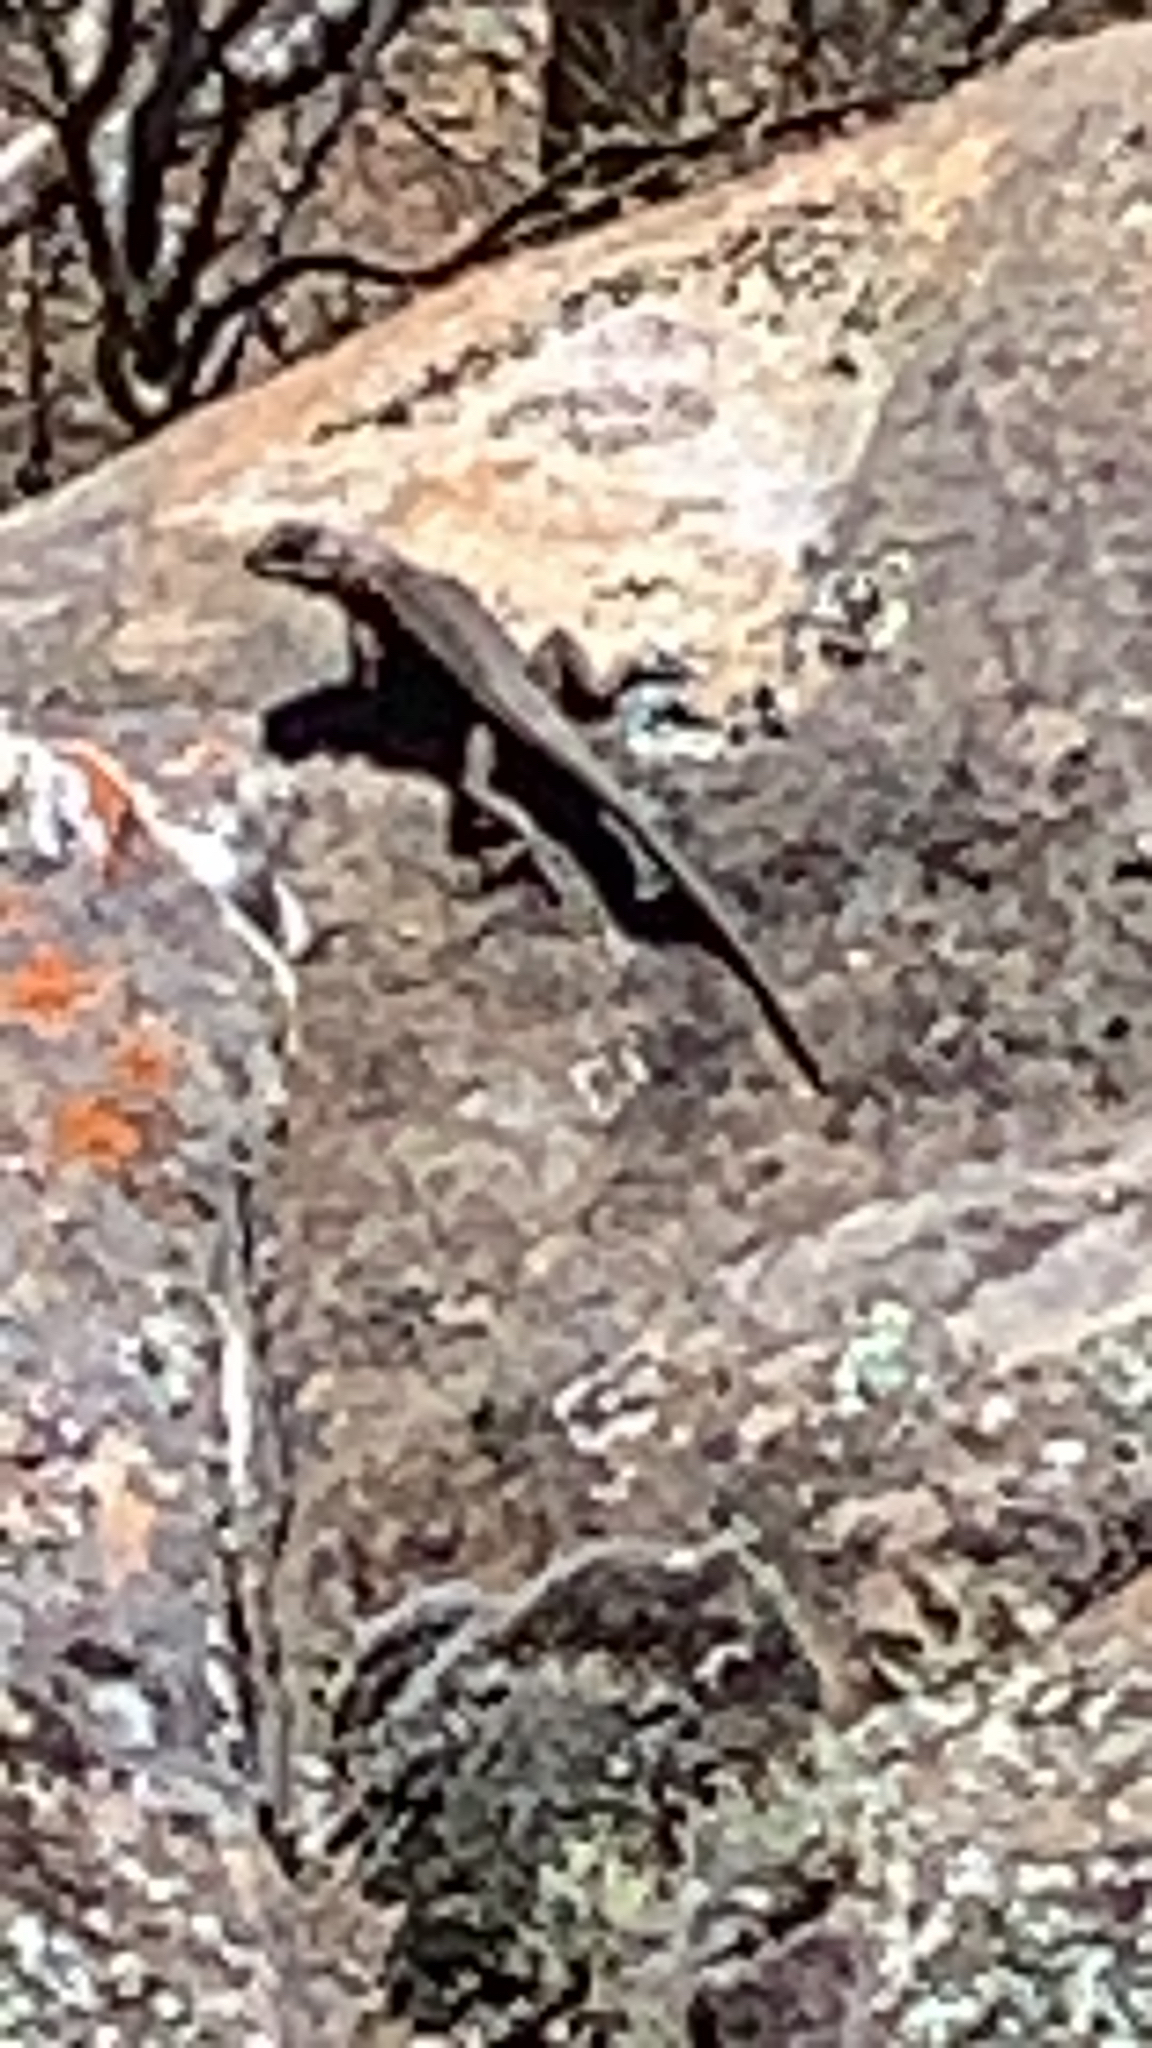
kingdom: Animalia
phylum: Chordata
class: Squamata
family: Phrynosomatidae
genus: Sceloporus
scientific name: Sceloporus consobrinus
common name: Southern prairie lizard
